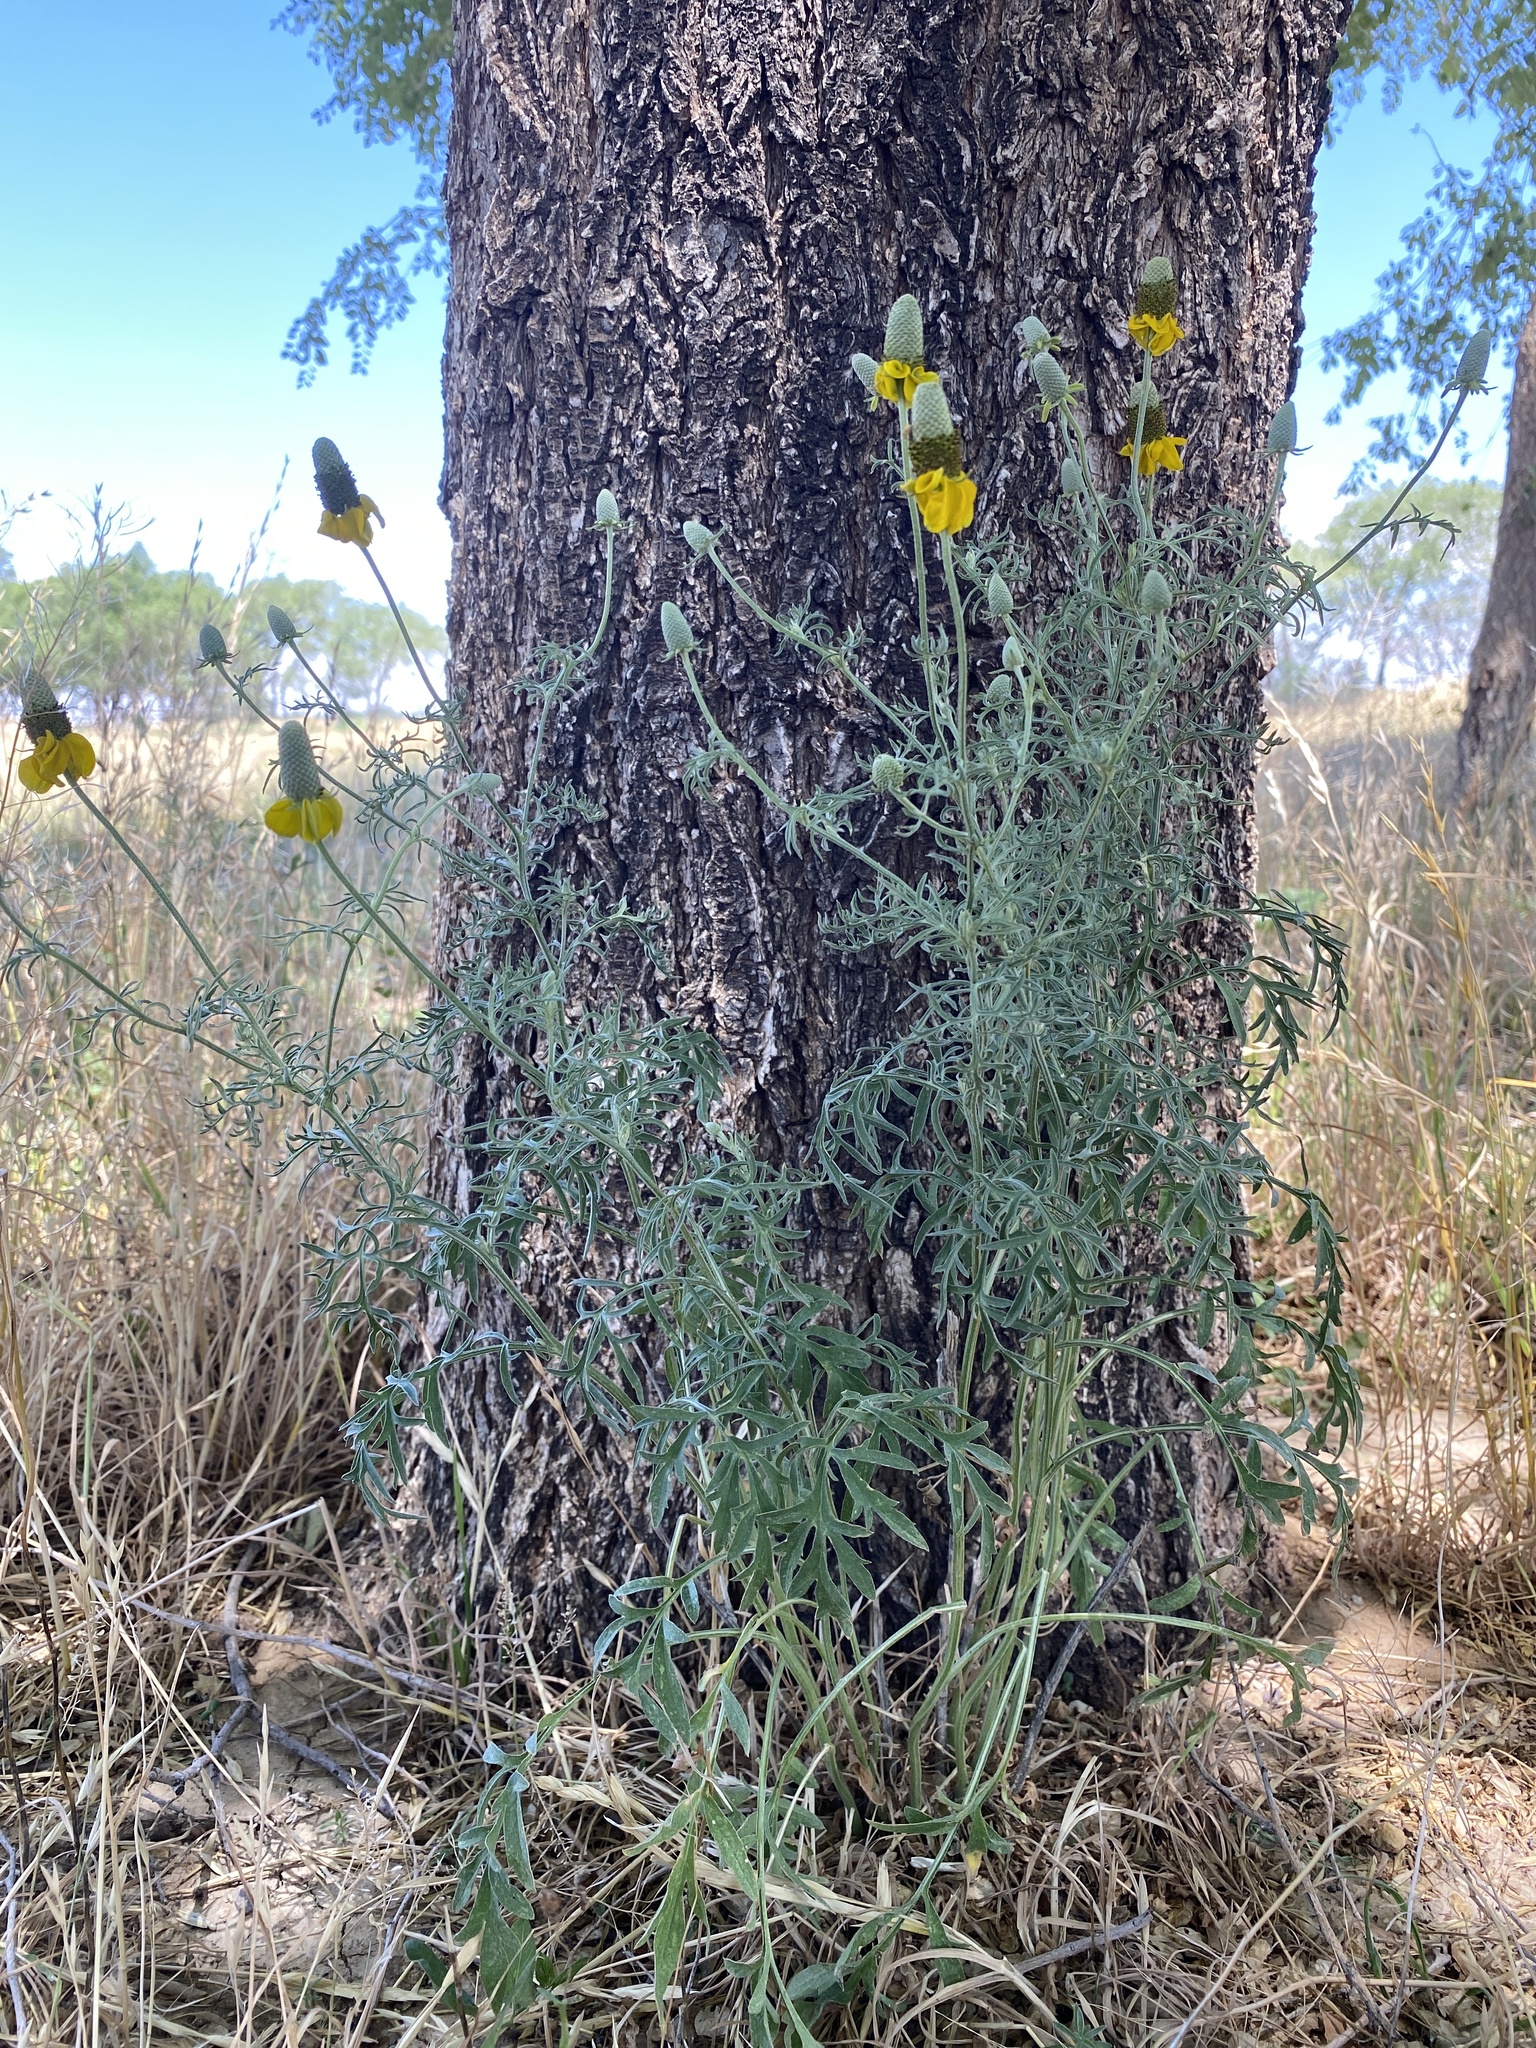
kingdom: Plantae
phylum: Tracheophyta
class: Magnoliopsida
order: Asterales
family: Asteraceae
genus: Ratibida
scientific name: Ratibida columnifera
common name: Prairie coneflower
